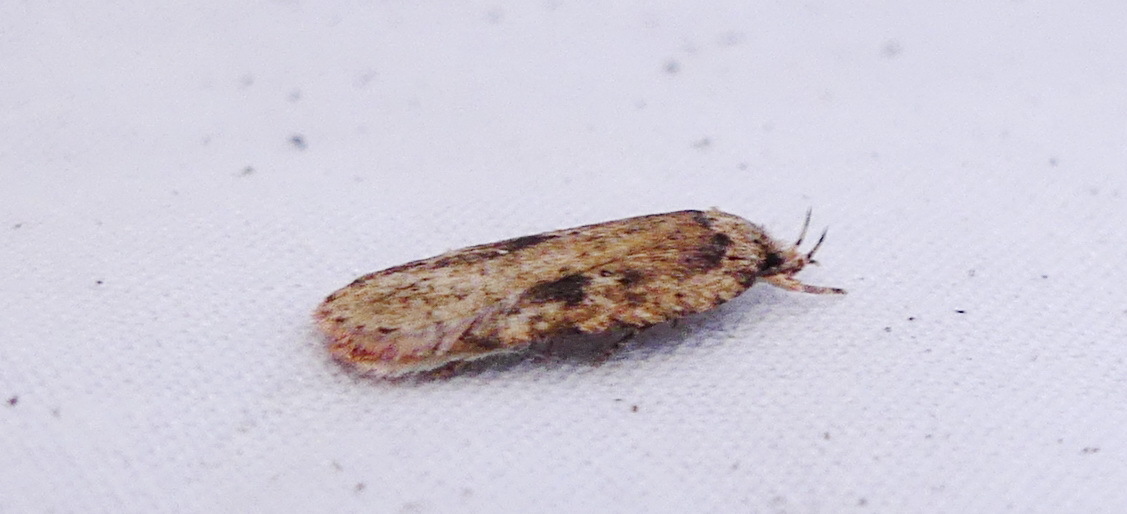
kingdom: Animalia
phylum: Arthropoda
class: Insecta
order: Lepidoptera
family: Depressariidae
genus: Agonopterix
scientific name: Agonopterix pulvipennella
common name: Goldenrod leafffolder
